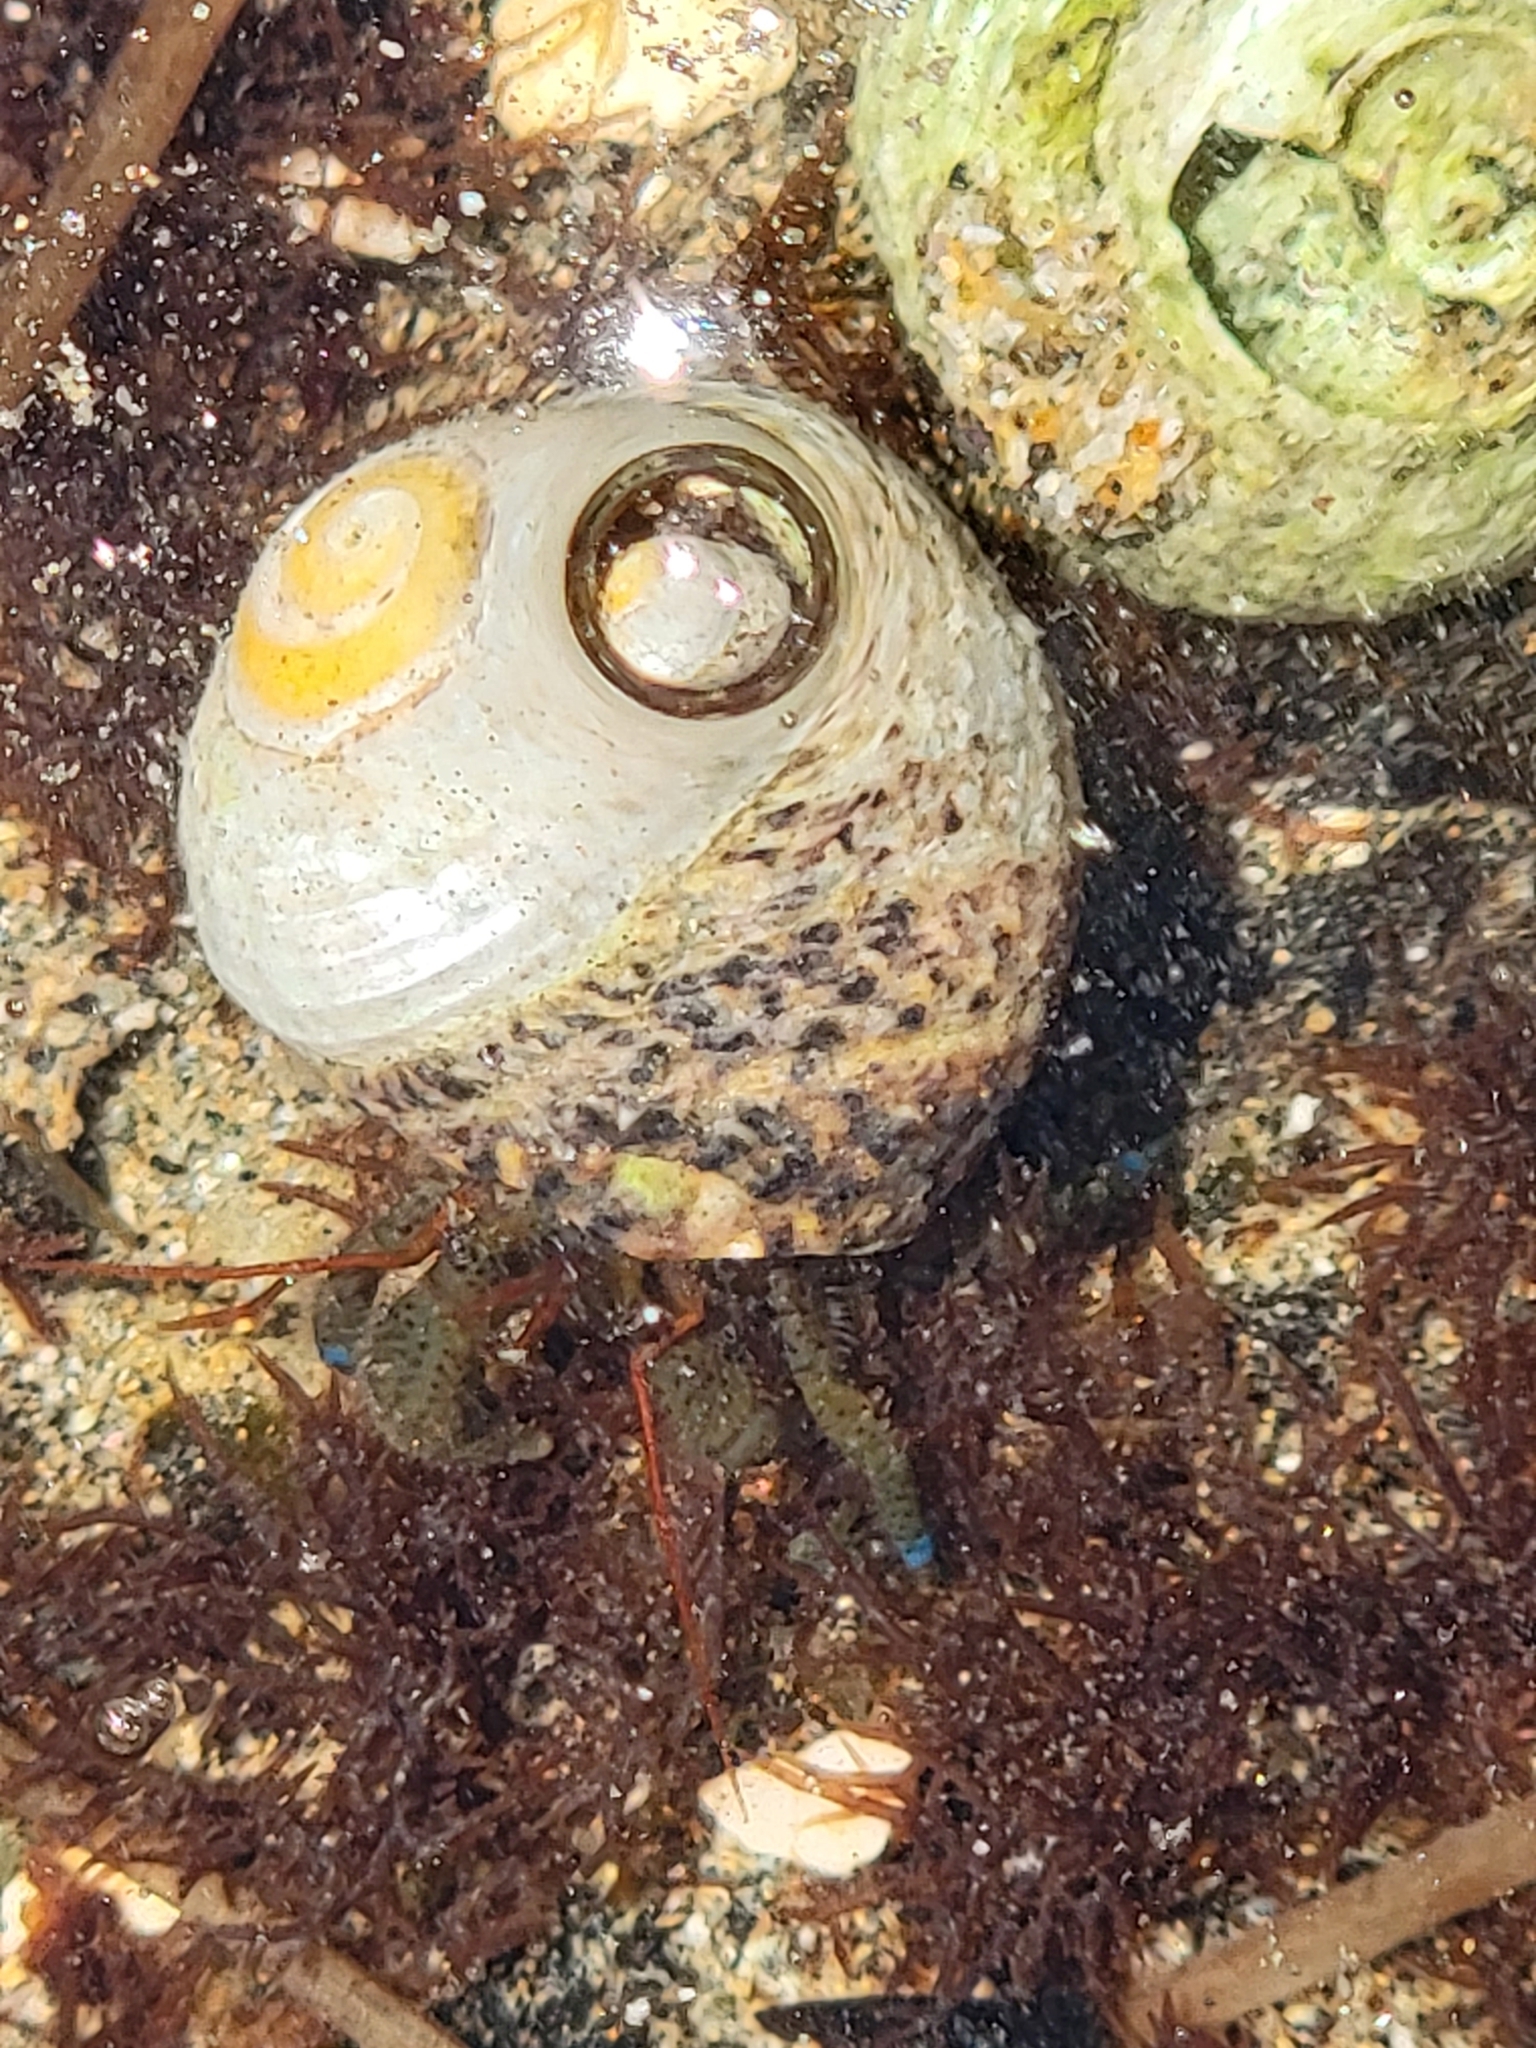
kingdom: Animalia
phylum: Arthropoda
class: Malacostraca
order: Decapoda
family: Paguridae
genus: Pagurus
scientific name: Pagurus samuelis
